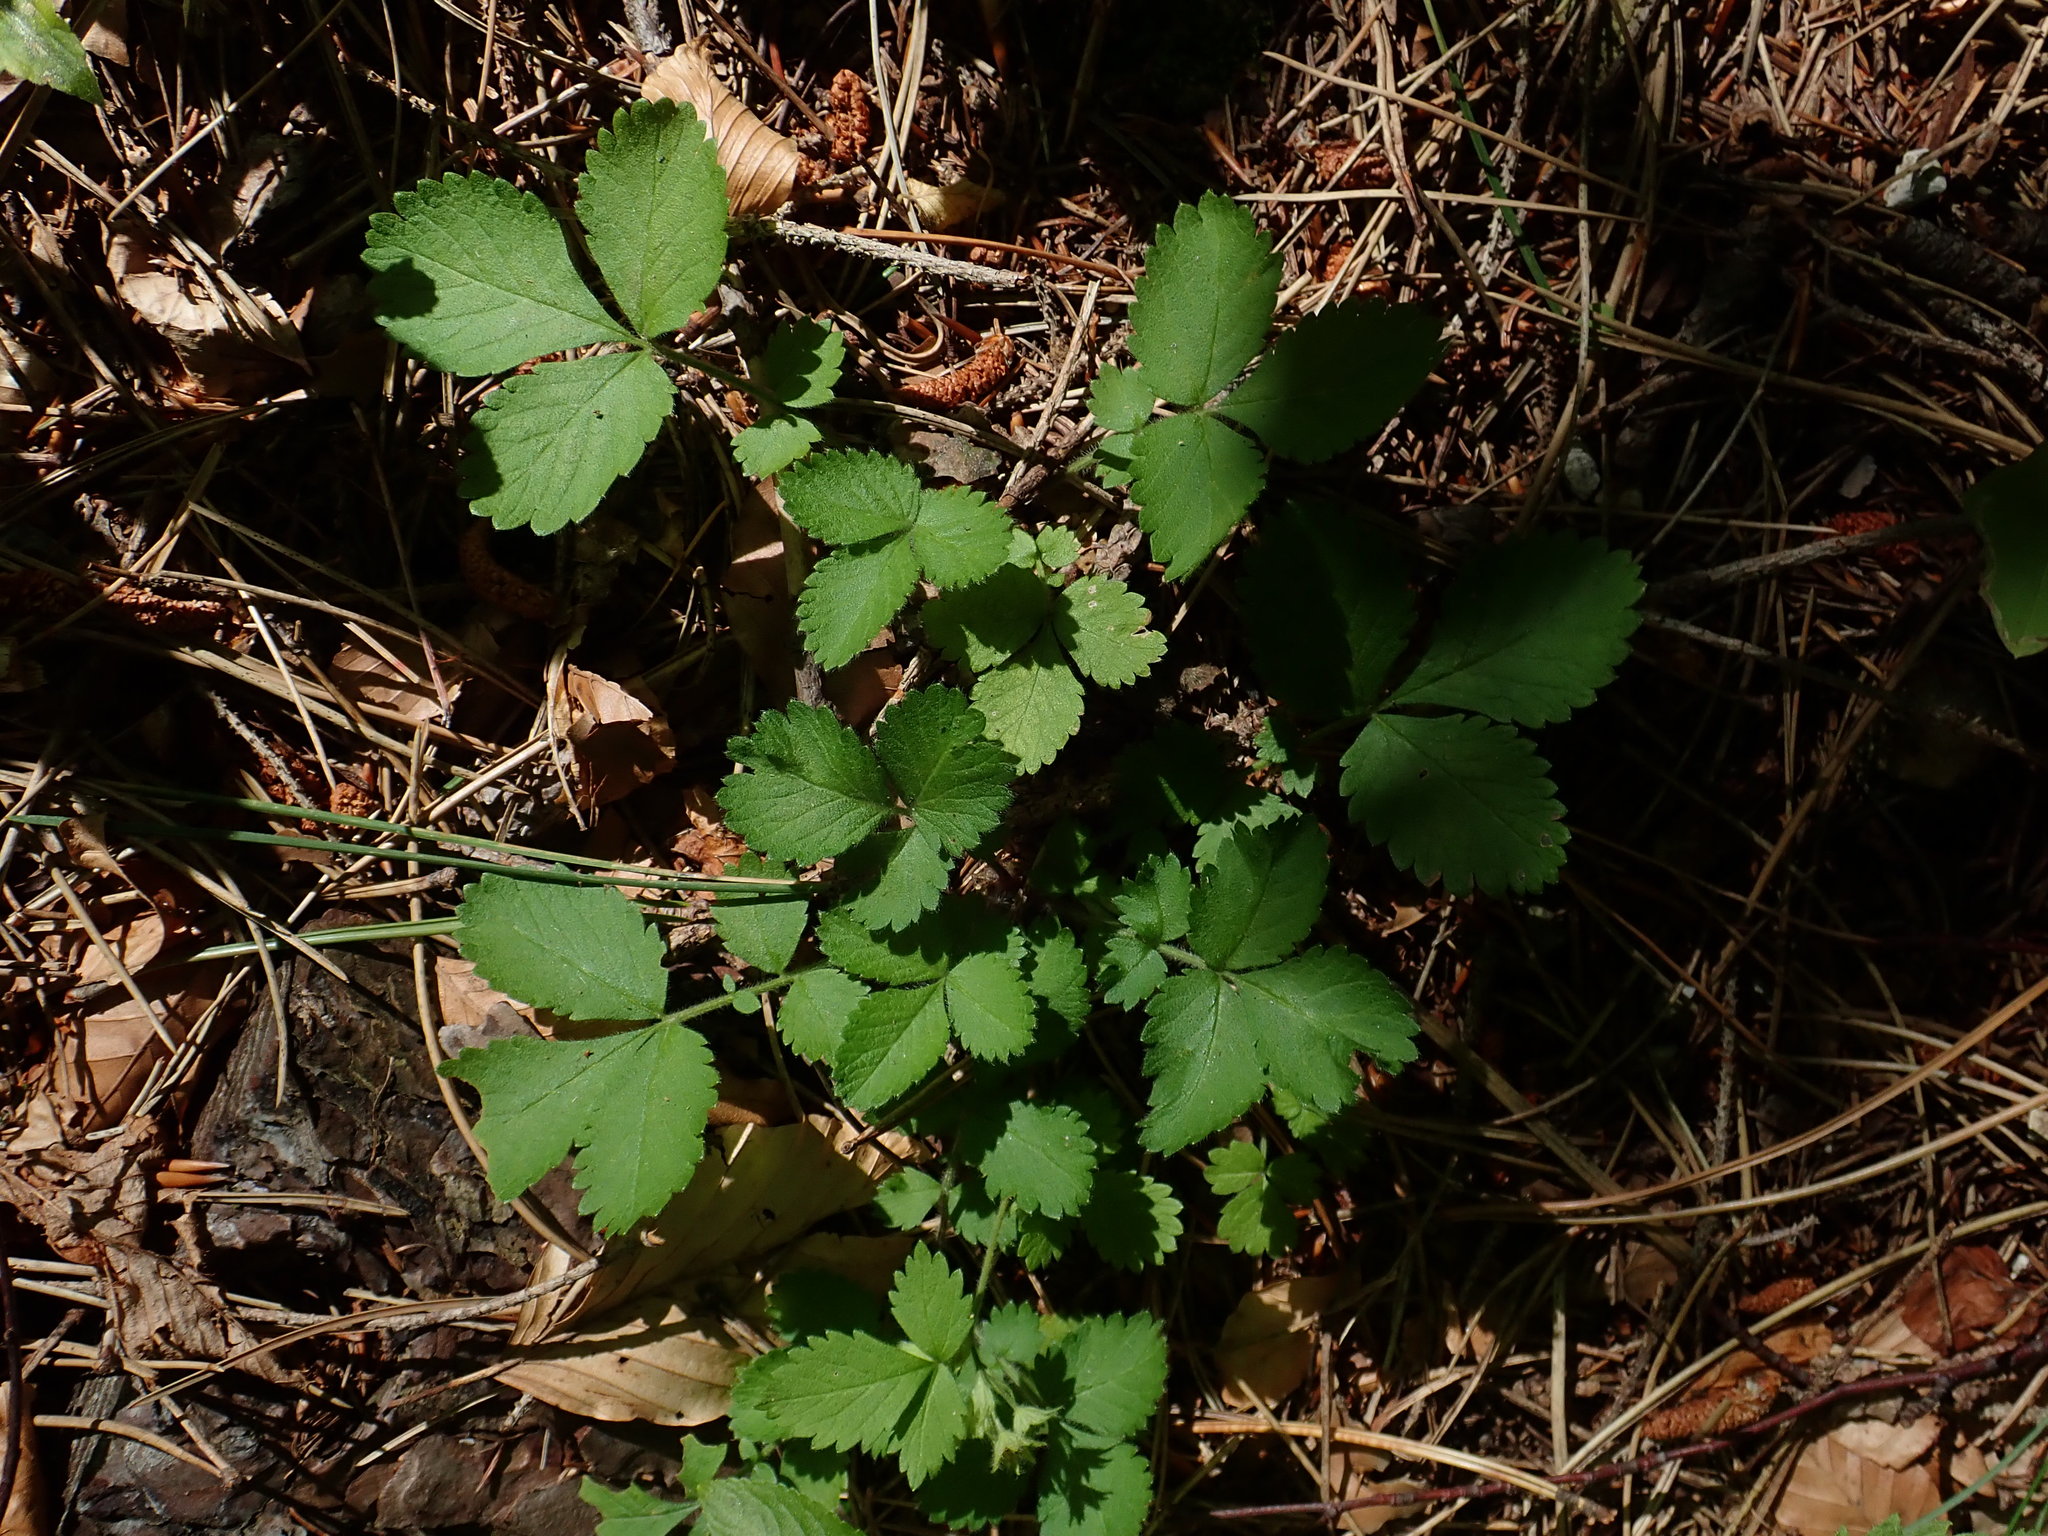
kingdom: Plantae
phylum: Tracheophyta
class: Magnoliopsida
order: Rosales
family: Rosaceae
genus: Aremonia
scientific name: Aremonia agrimonoides
